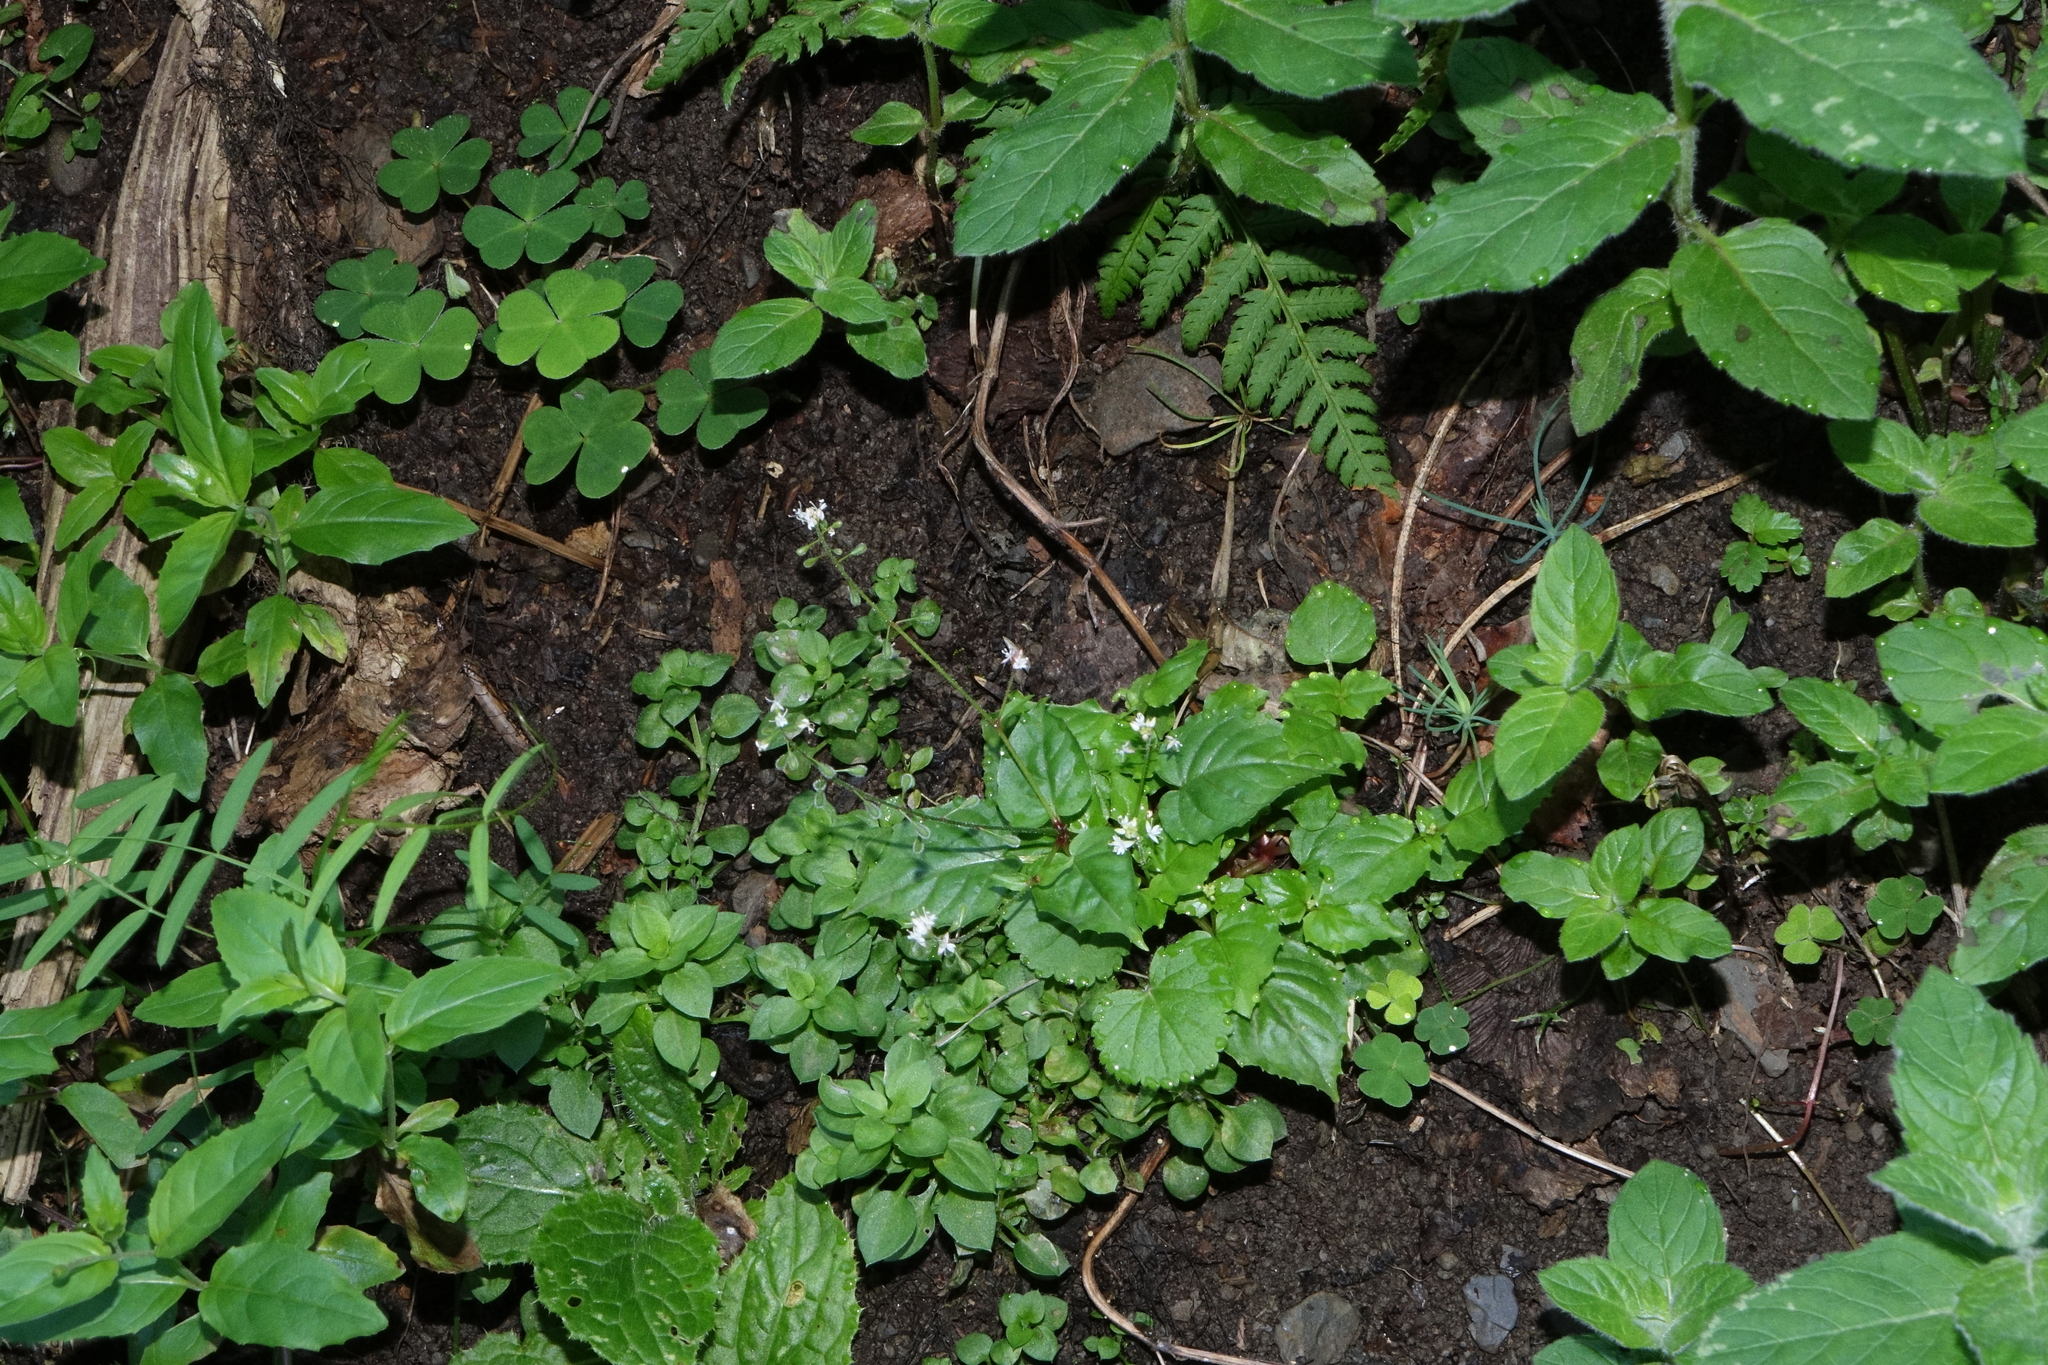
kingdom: Plantae
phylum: Tracheophyta
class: Magnoliopsida
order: Myrtales
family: Onagraceae
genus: Circaea
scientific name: Circaea alpina
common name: Alpine enchanter's-nightshade
